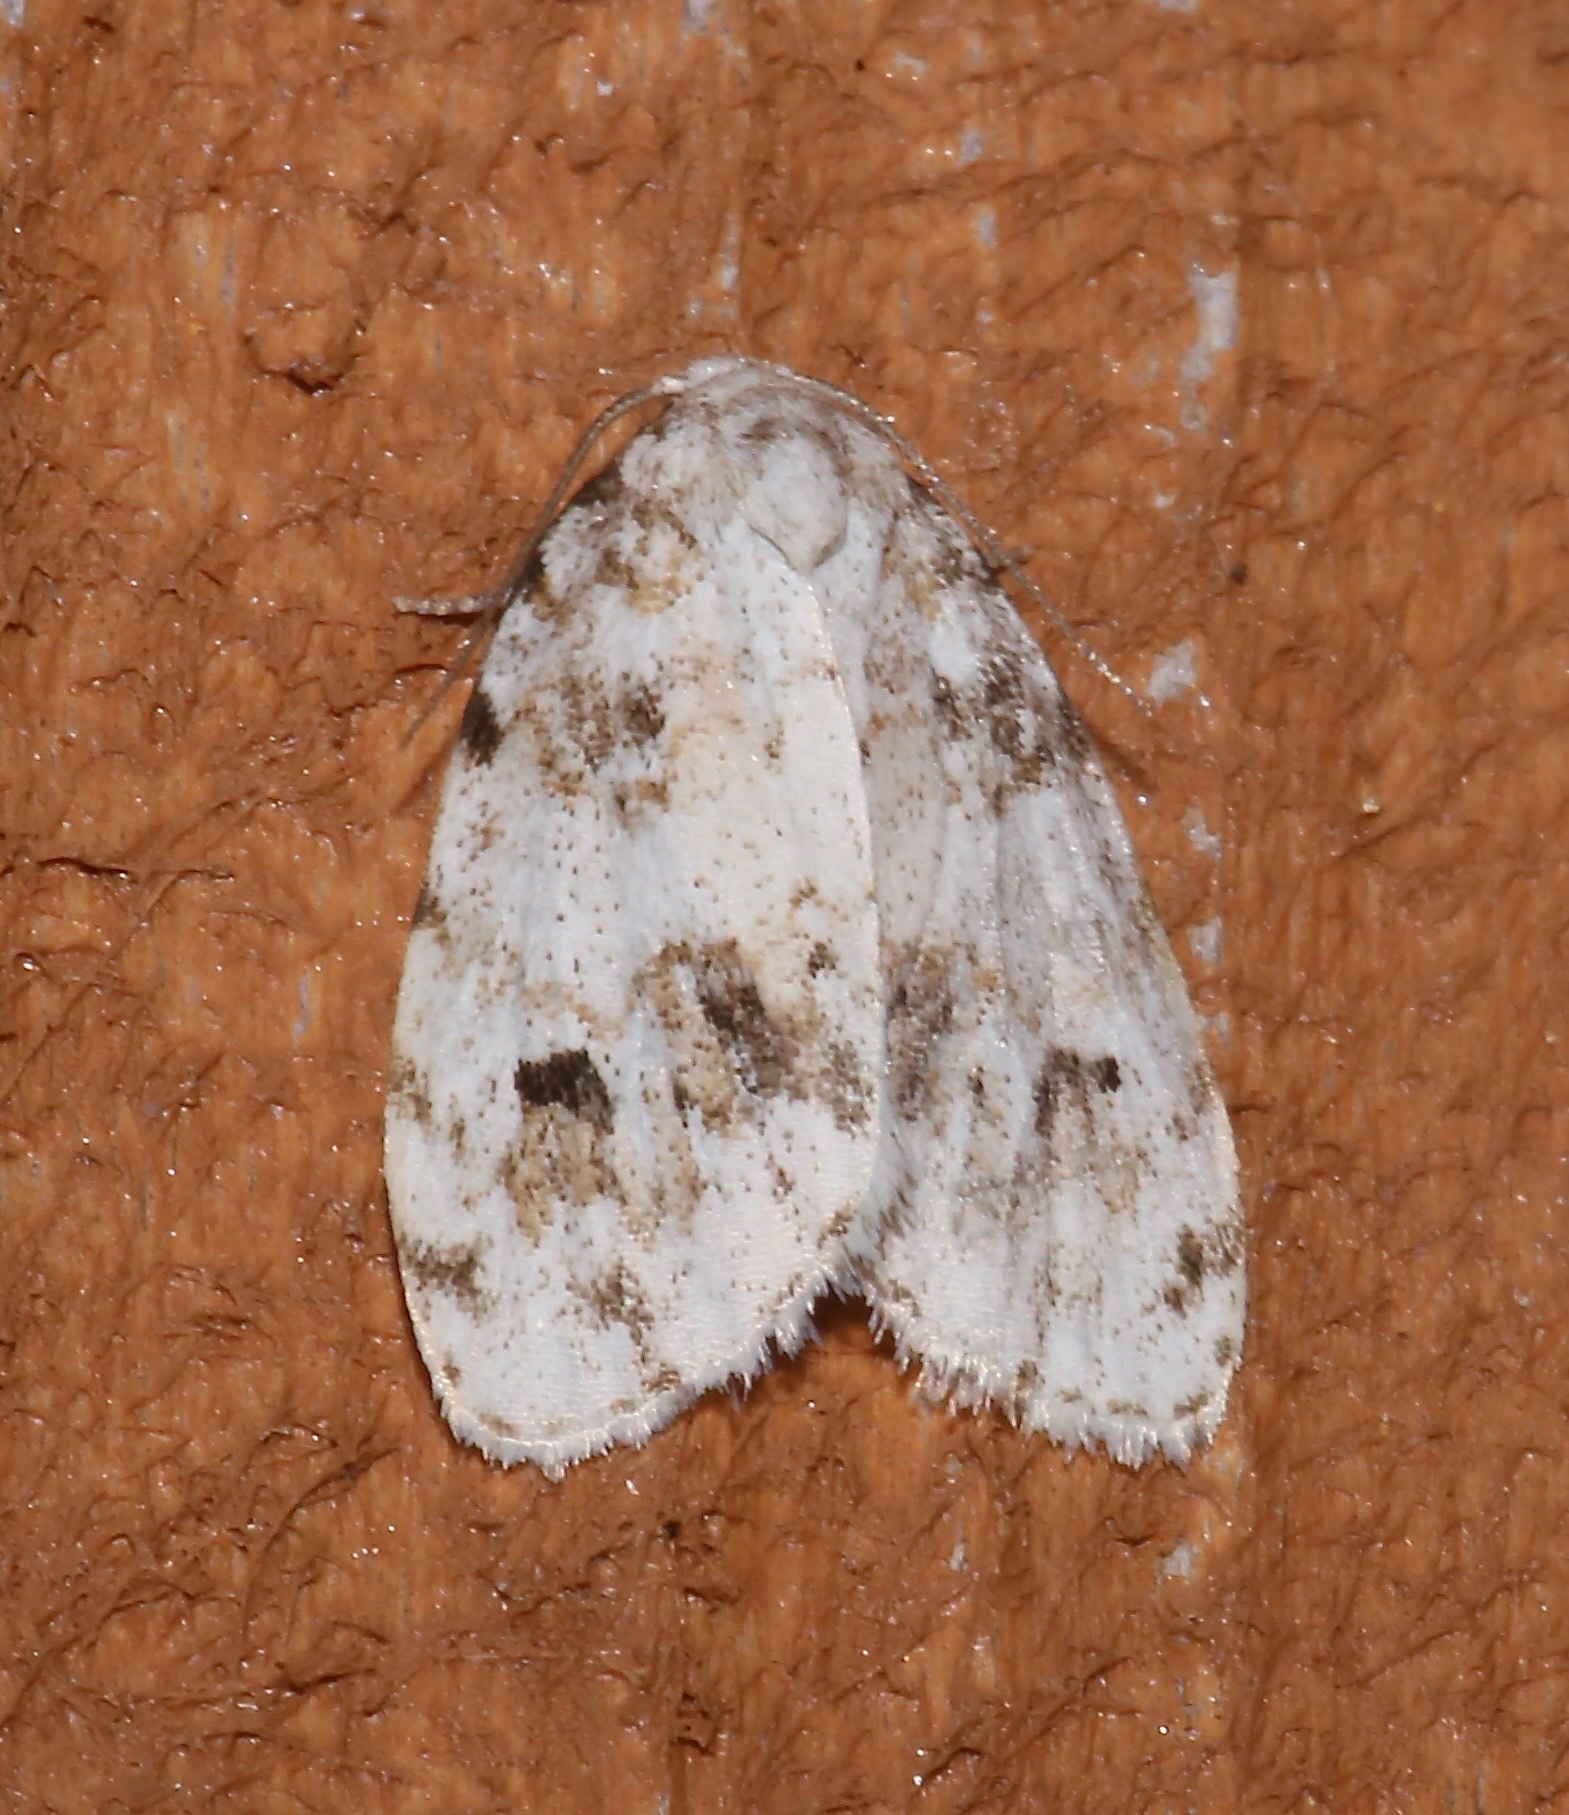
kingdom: Animalia
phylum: Arthropoda
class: Insecta
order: Lepidoptera
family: Erebidae
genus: Clemensia
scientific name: Clemensia ochreata
